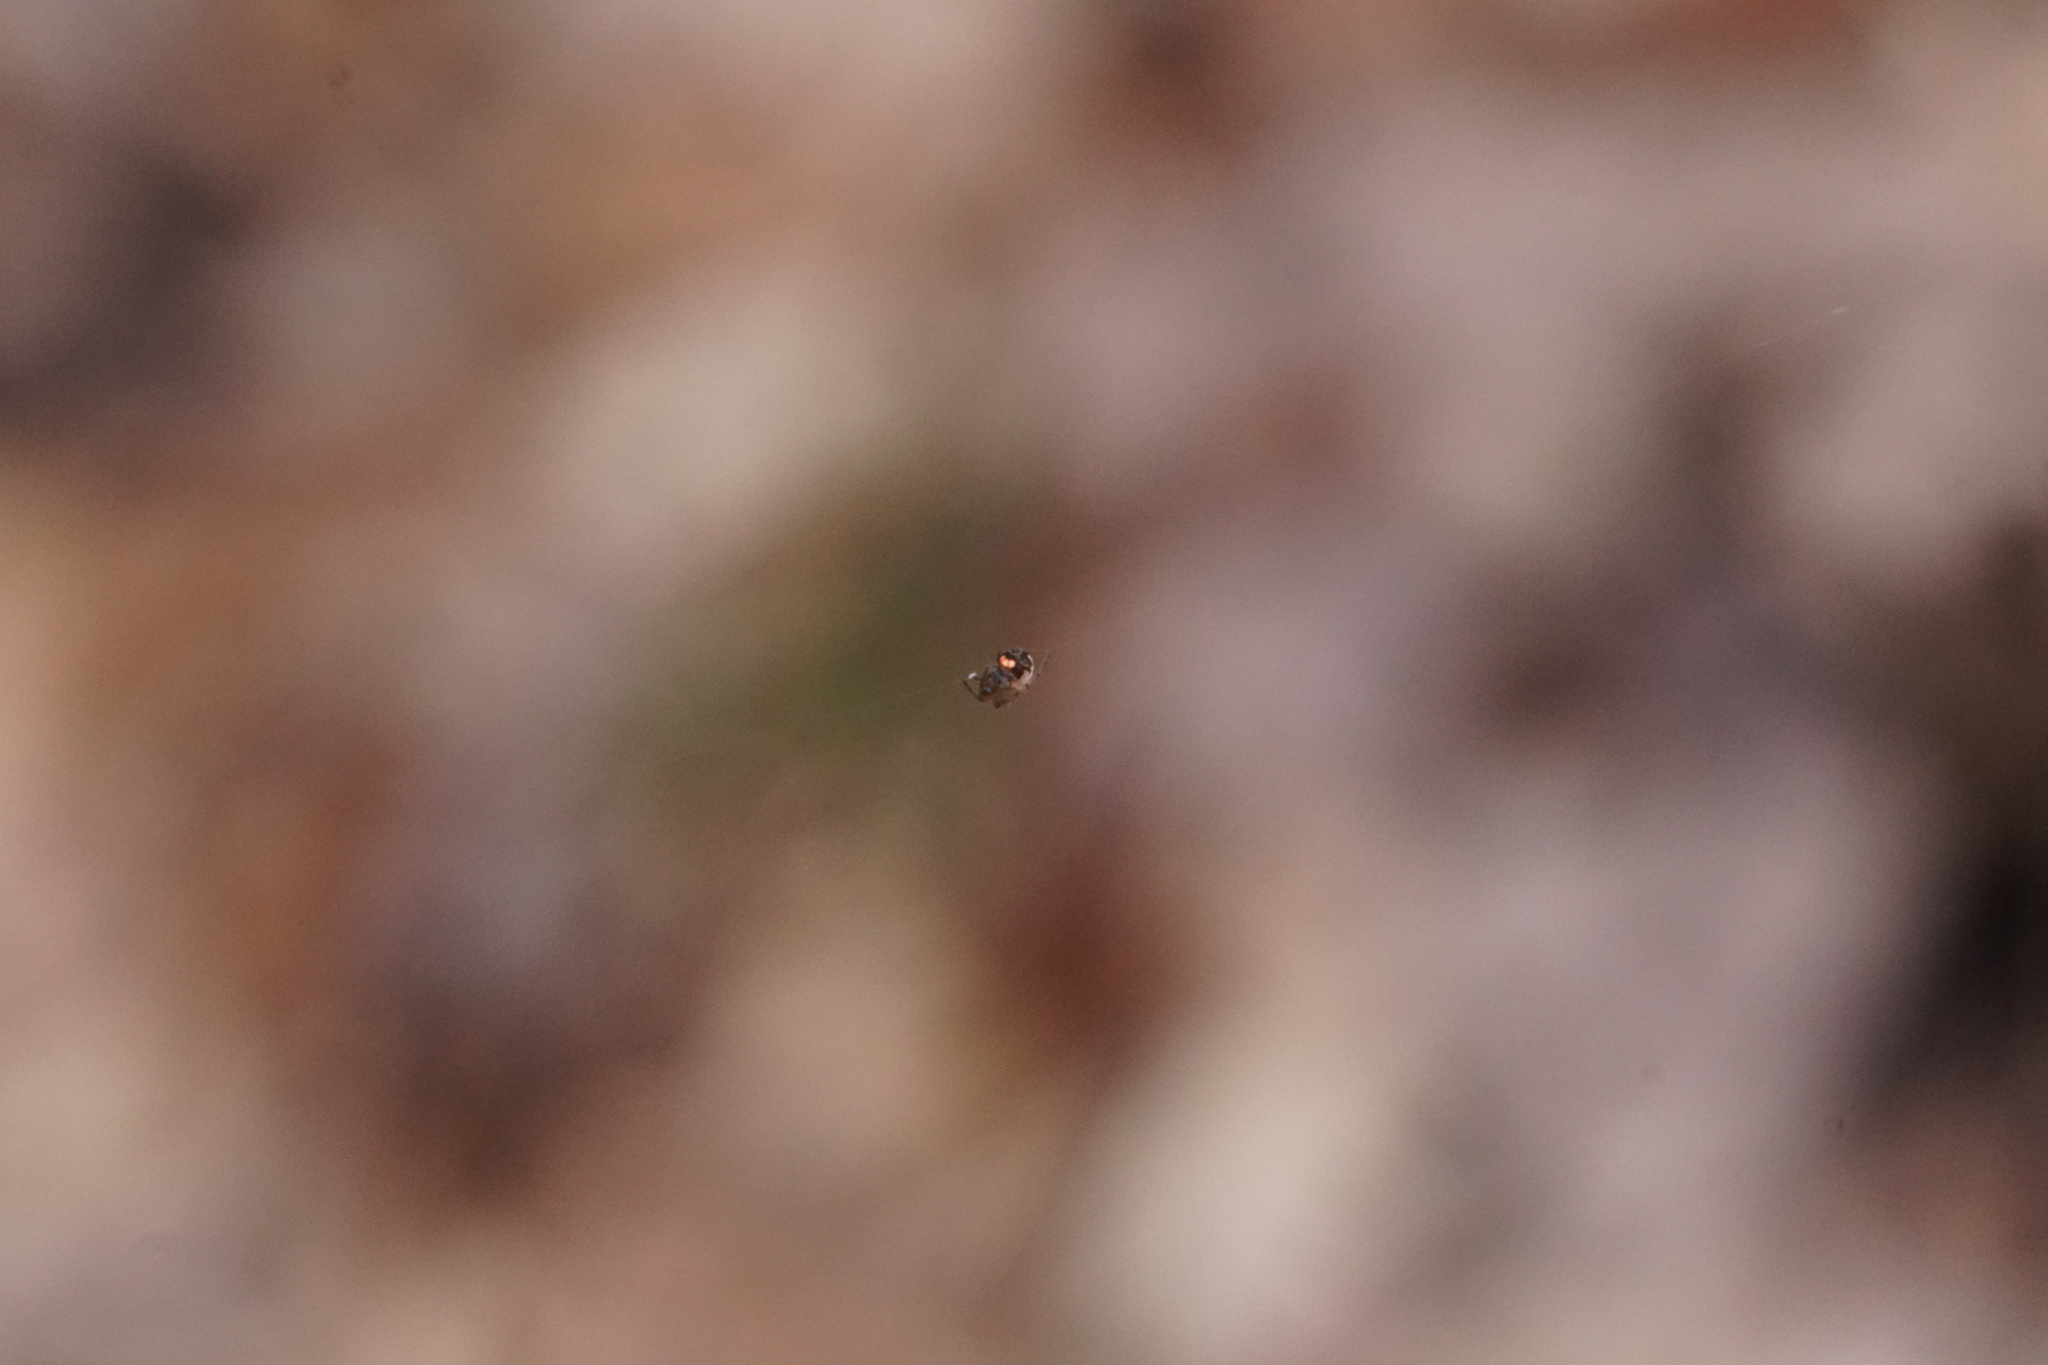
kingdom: Animalia
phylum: Arthropoda
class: Arachnida
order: Araneae
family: Tetragnathidae
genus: Leucauge
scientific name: Leucauge venusta
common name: Longjawed orb weavers
